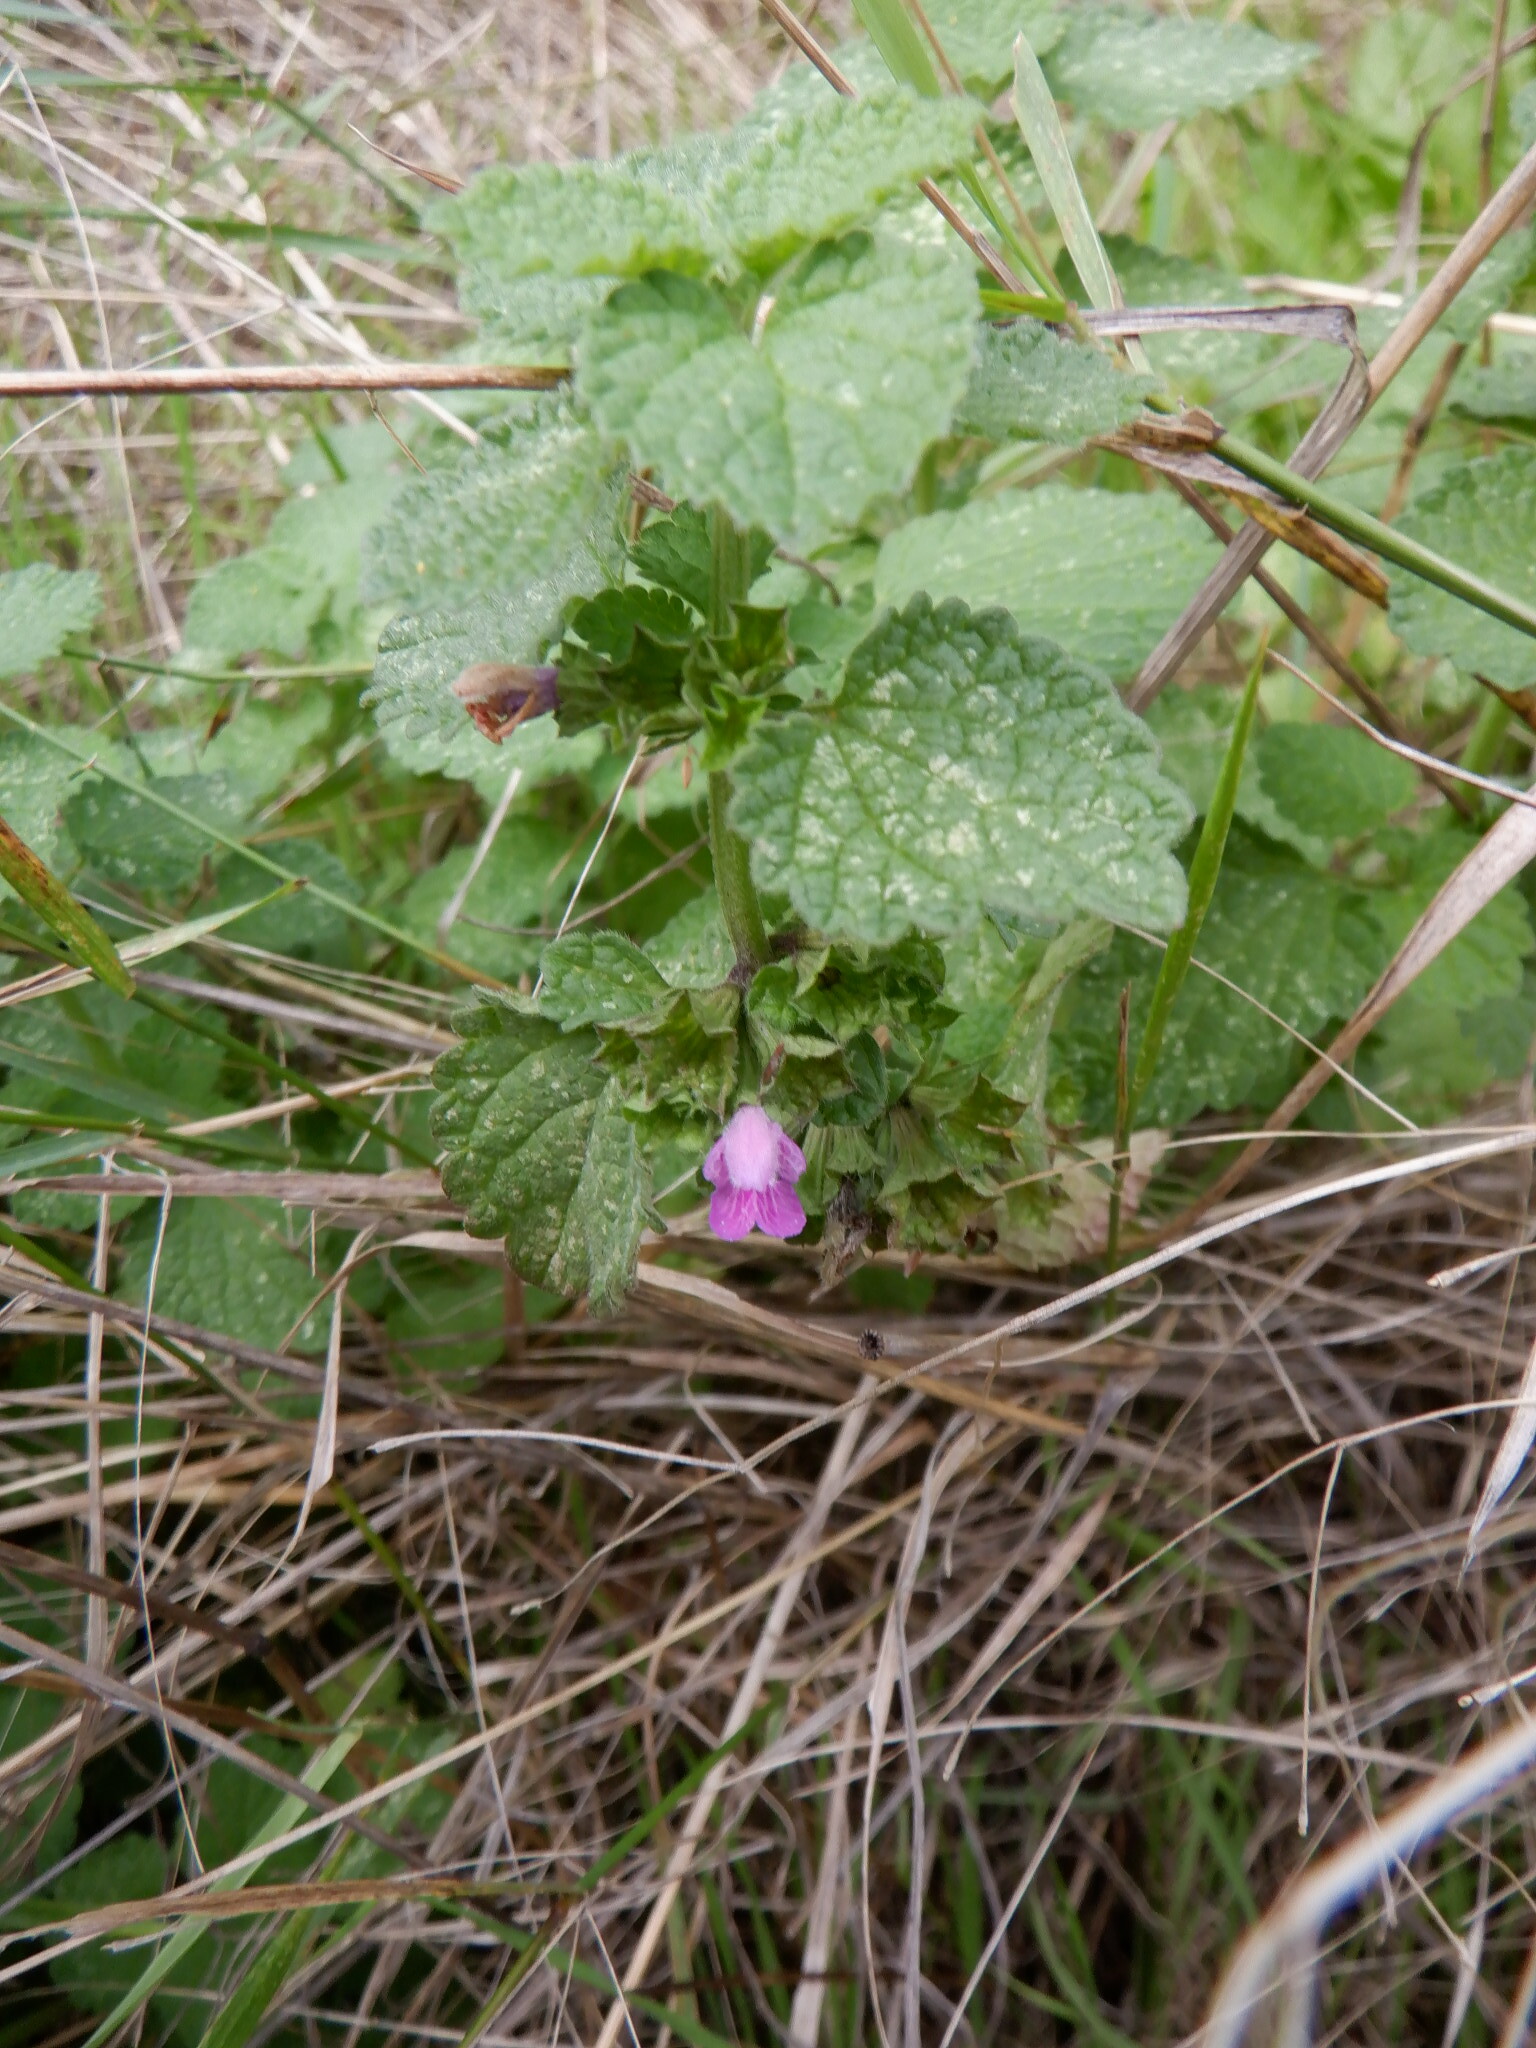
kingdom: Plantae
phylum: Tracheophyta
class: Magnoliopsida
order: Lamiales
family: Lamiaceae
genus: Ballota
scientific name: Ballota nigra
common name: Black horehound
